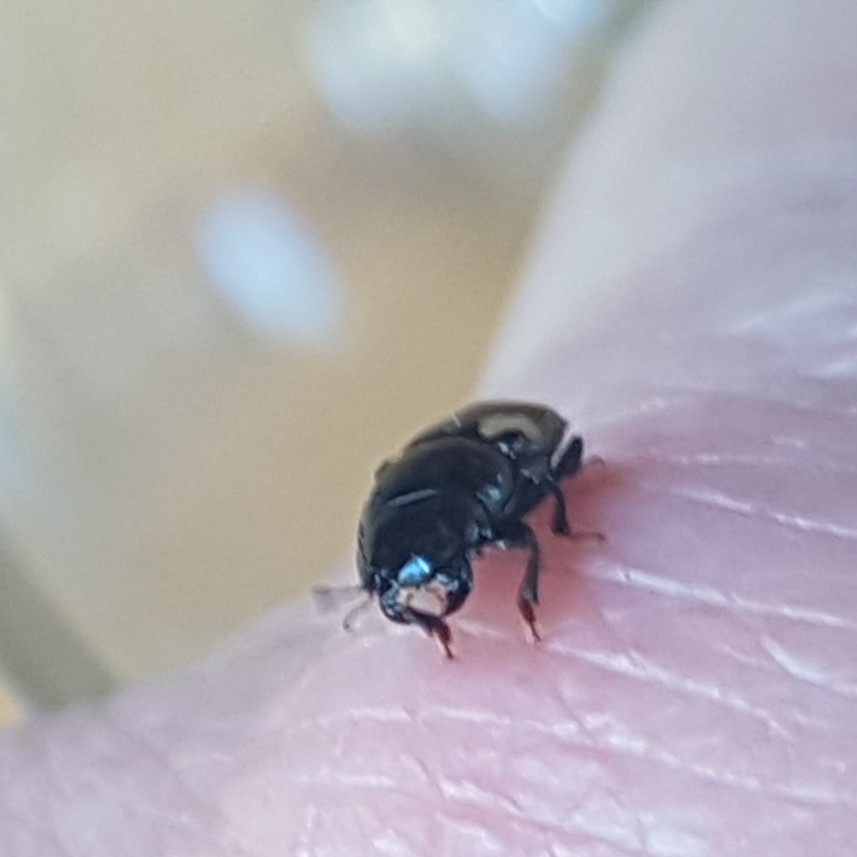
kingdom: Animalia
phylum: Arthropoda
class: Insecta
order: Coleoptera
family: Nitidulidae
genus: Glischrochilus
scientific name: Glischrochilus quadrisignatus
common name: Picnic beetle
